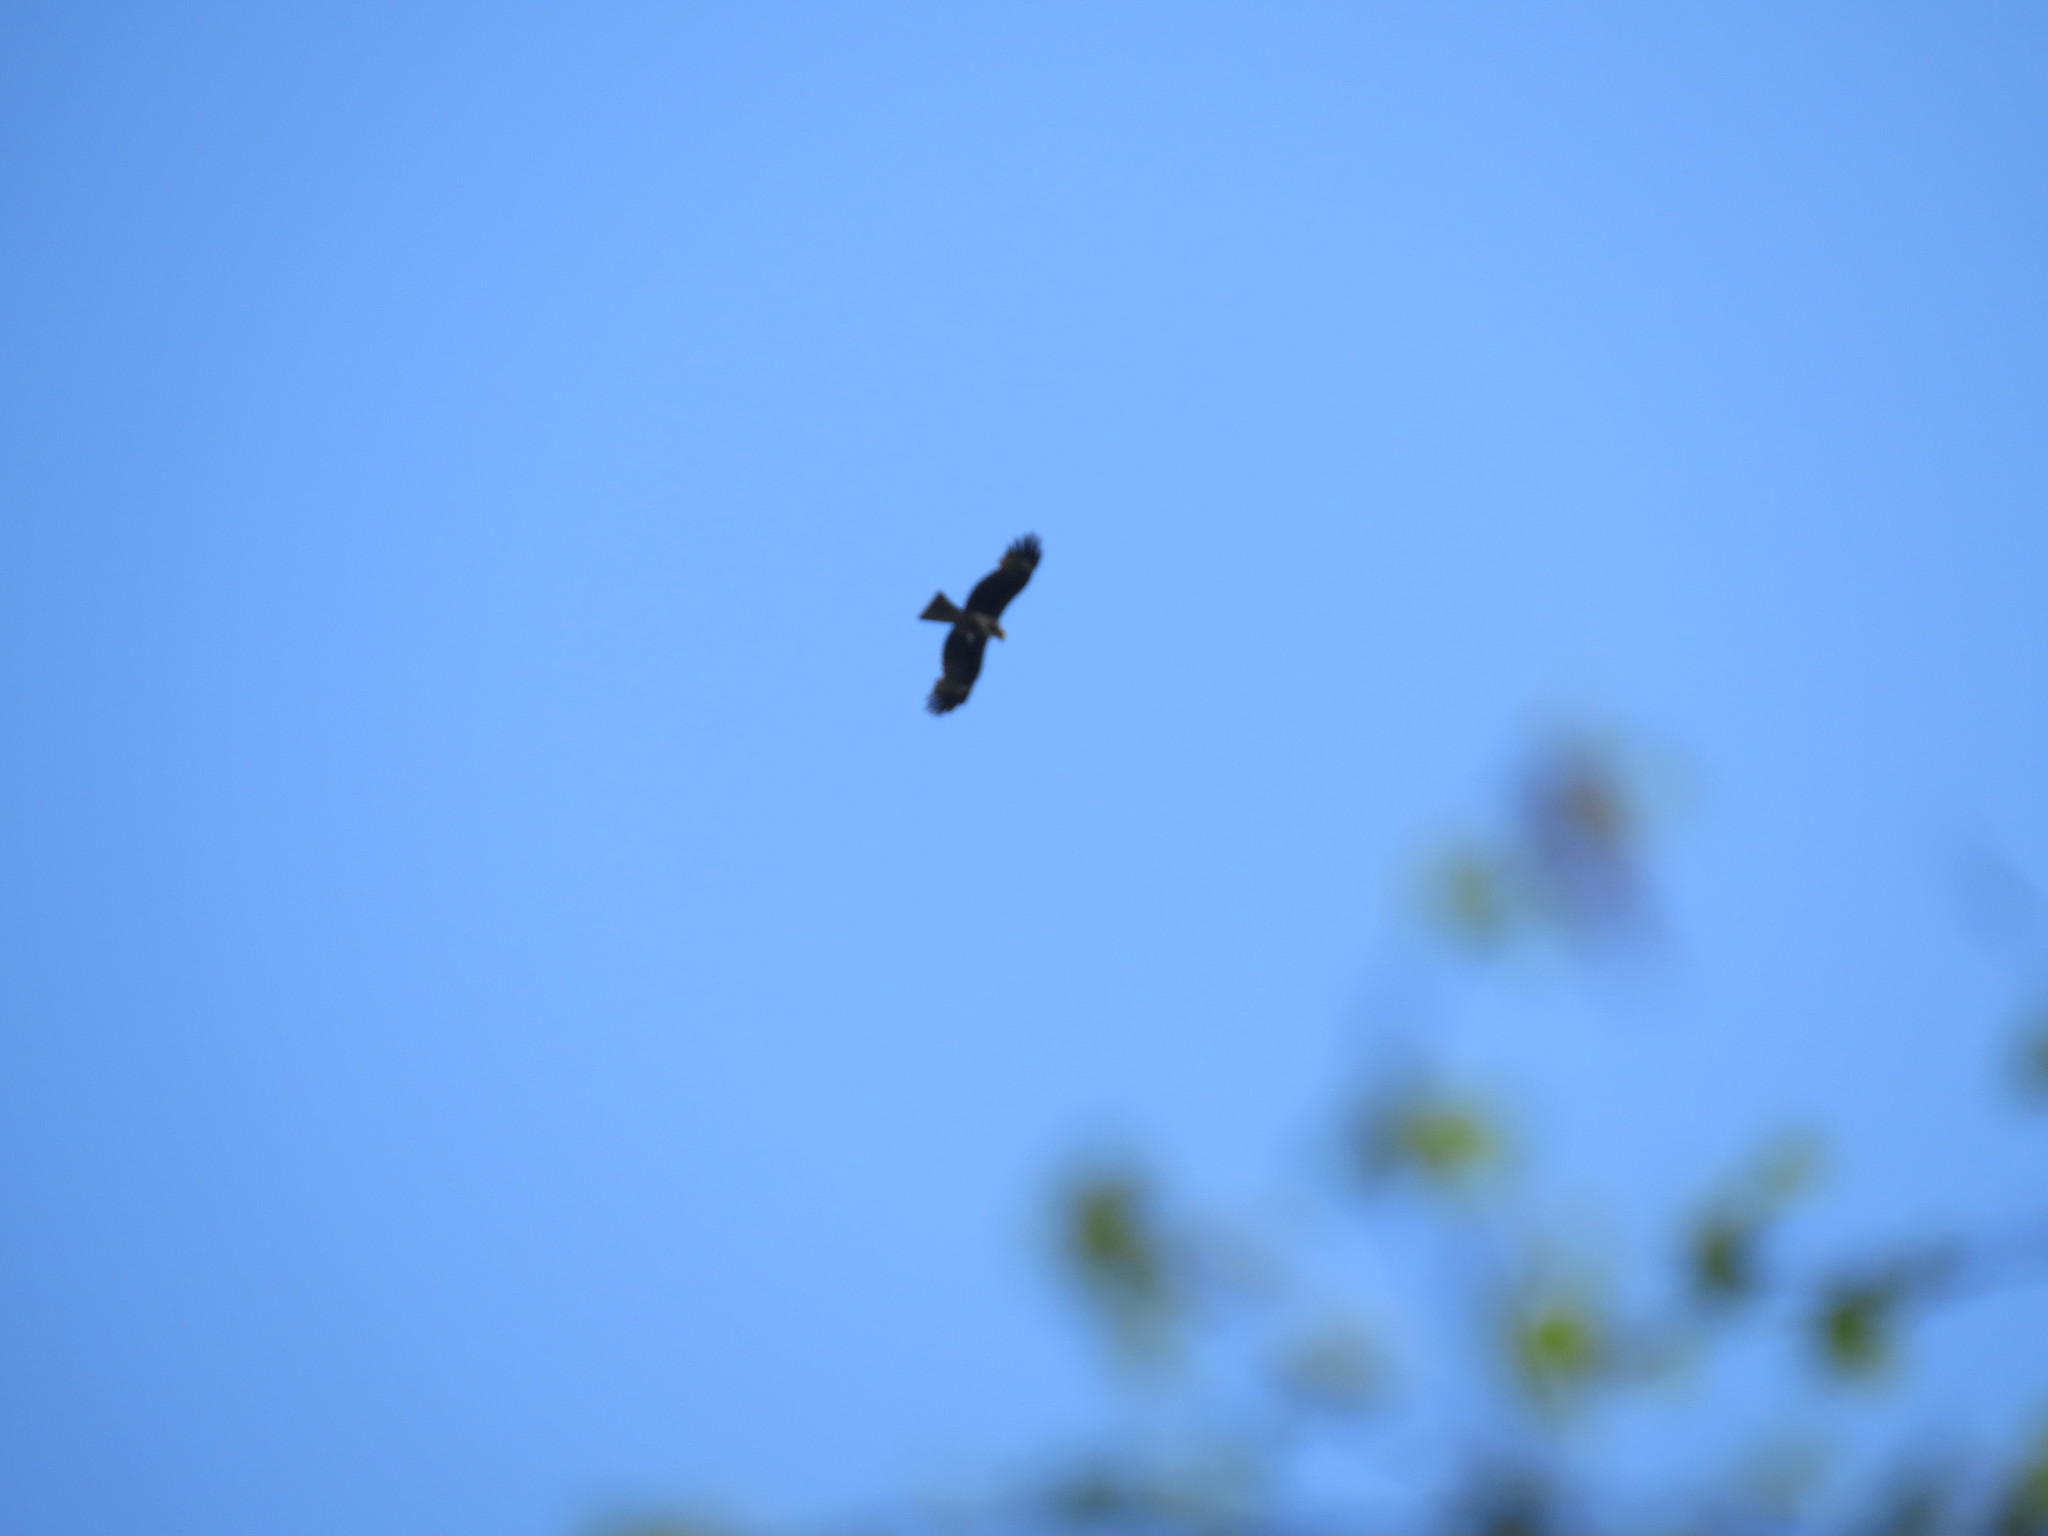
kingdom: Animalia
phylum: Chordata
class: Aves
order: Accipitriformes
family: Accipitridae
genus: Milvus
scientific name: Milvus migrans
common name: Black kite
